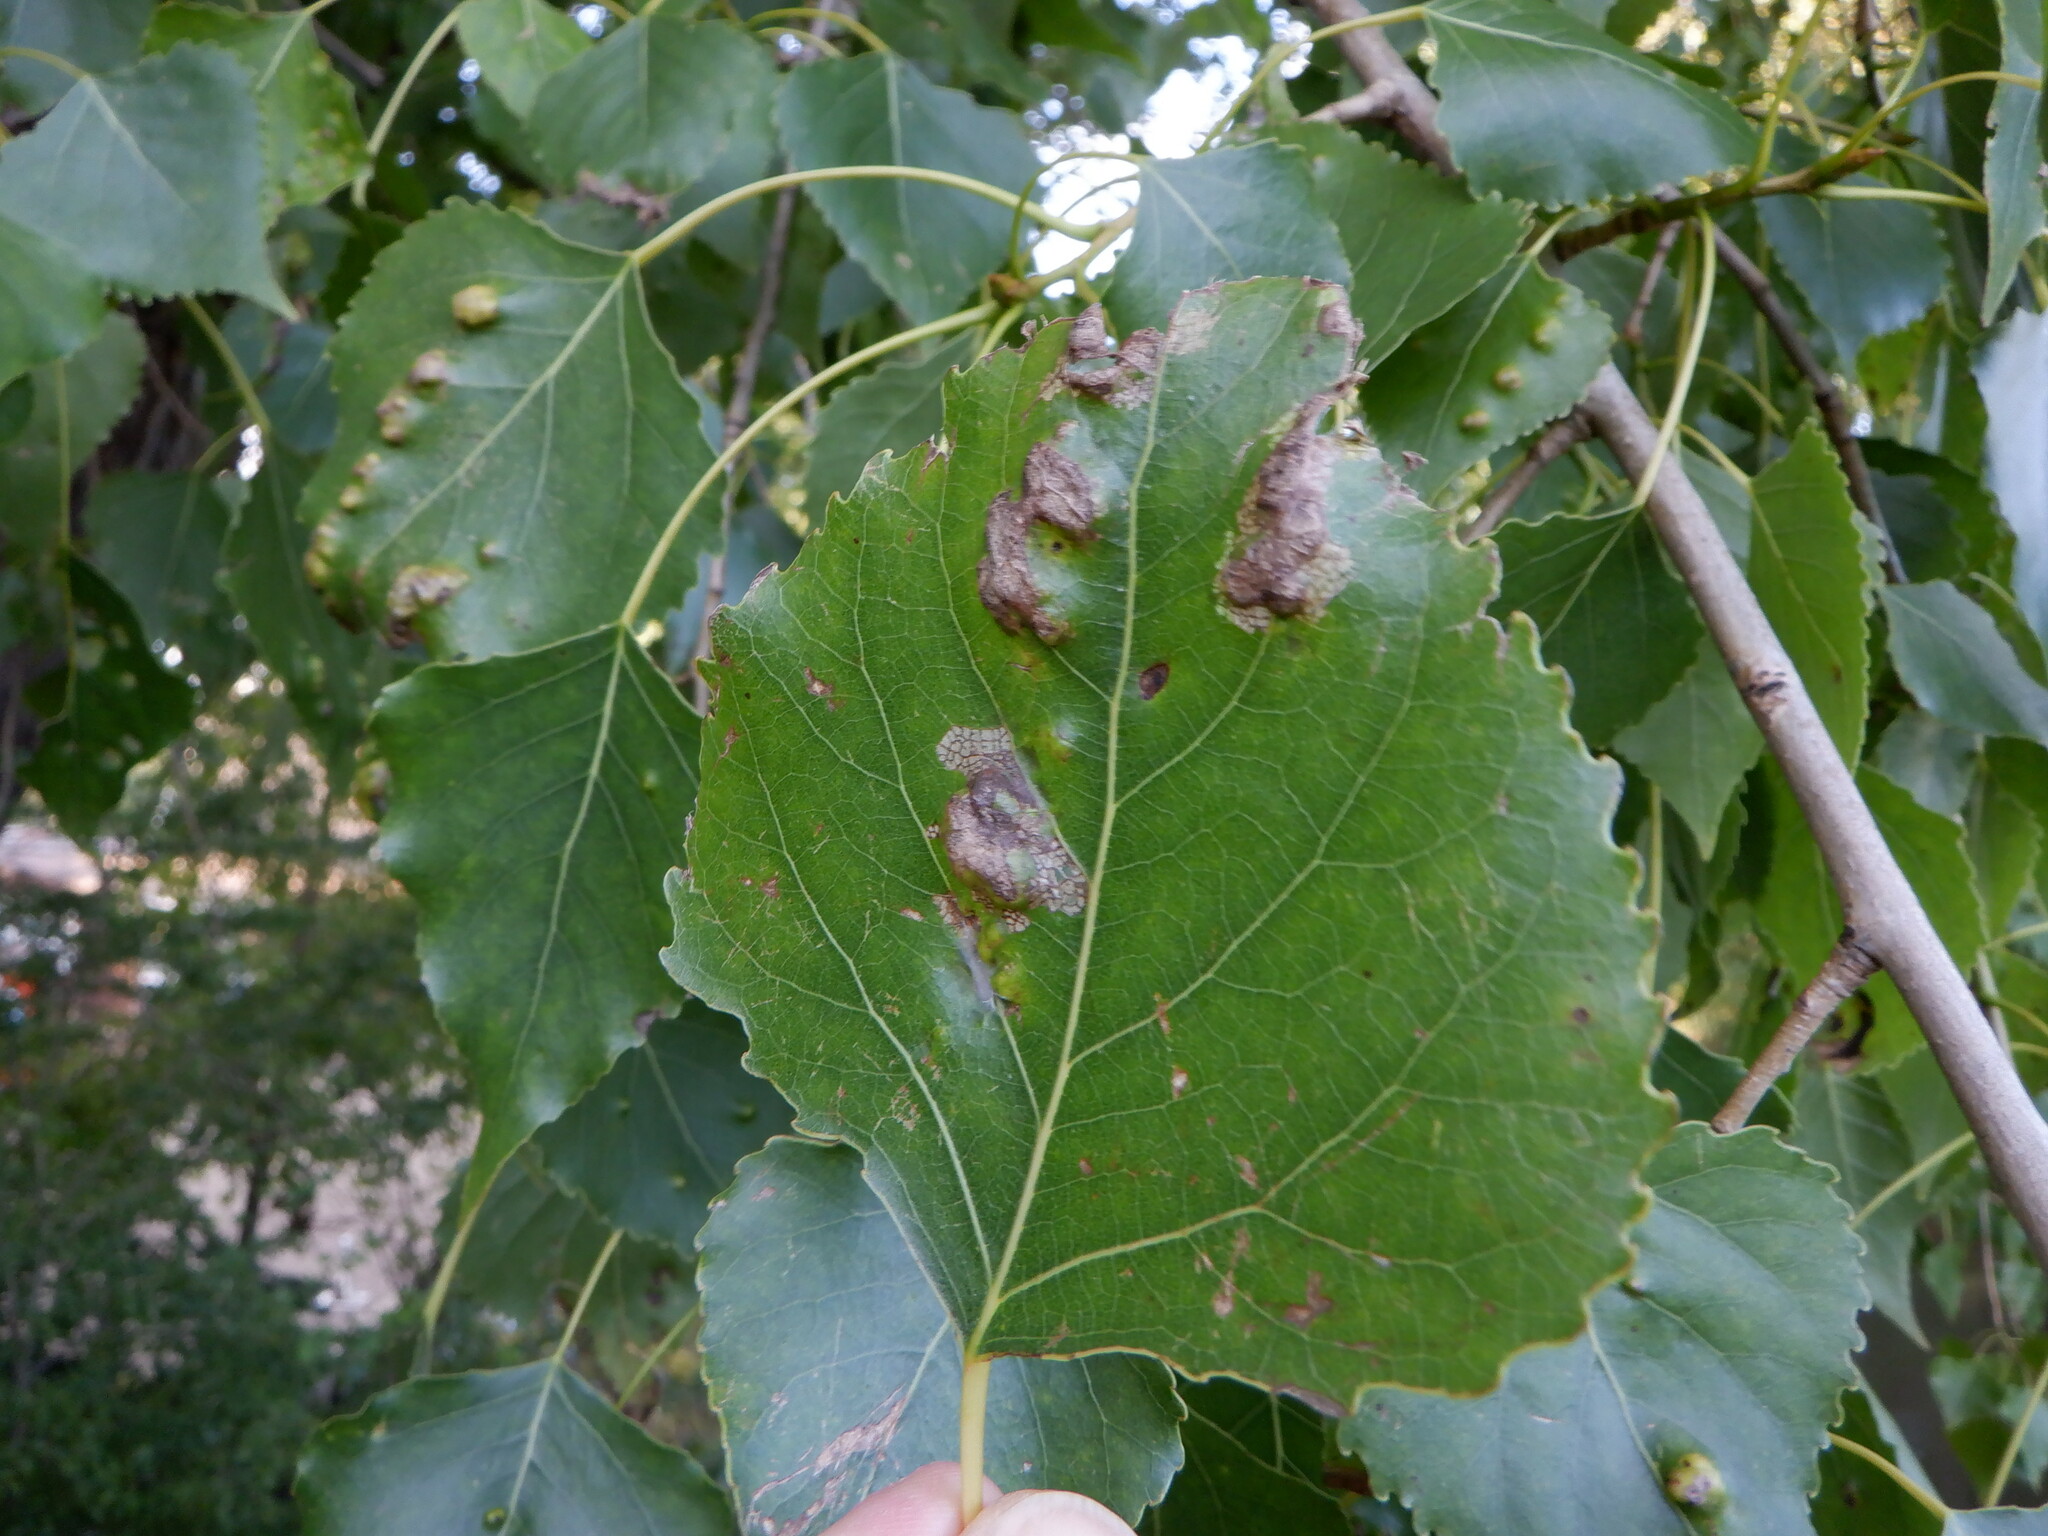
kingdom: Fungi
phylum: Ascomycota
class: Taphrinomycetes
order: Taphrinales
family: Taphrinaceae
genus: Taphrina
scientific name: Taphrina populina
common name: Poplar leaf curl
